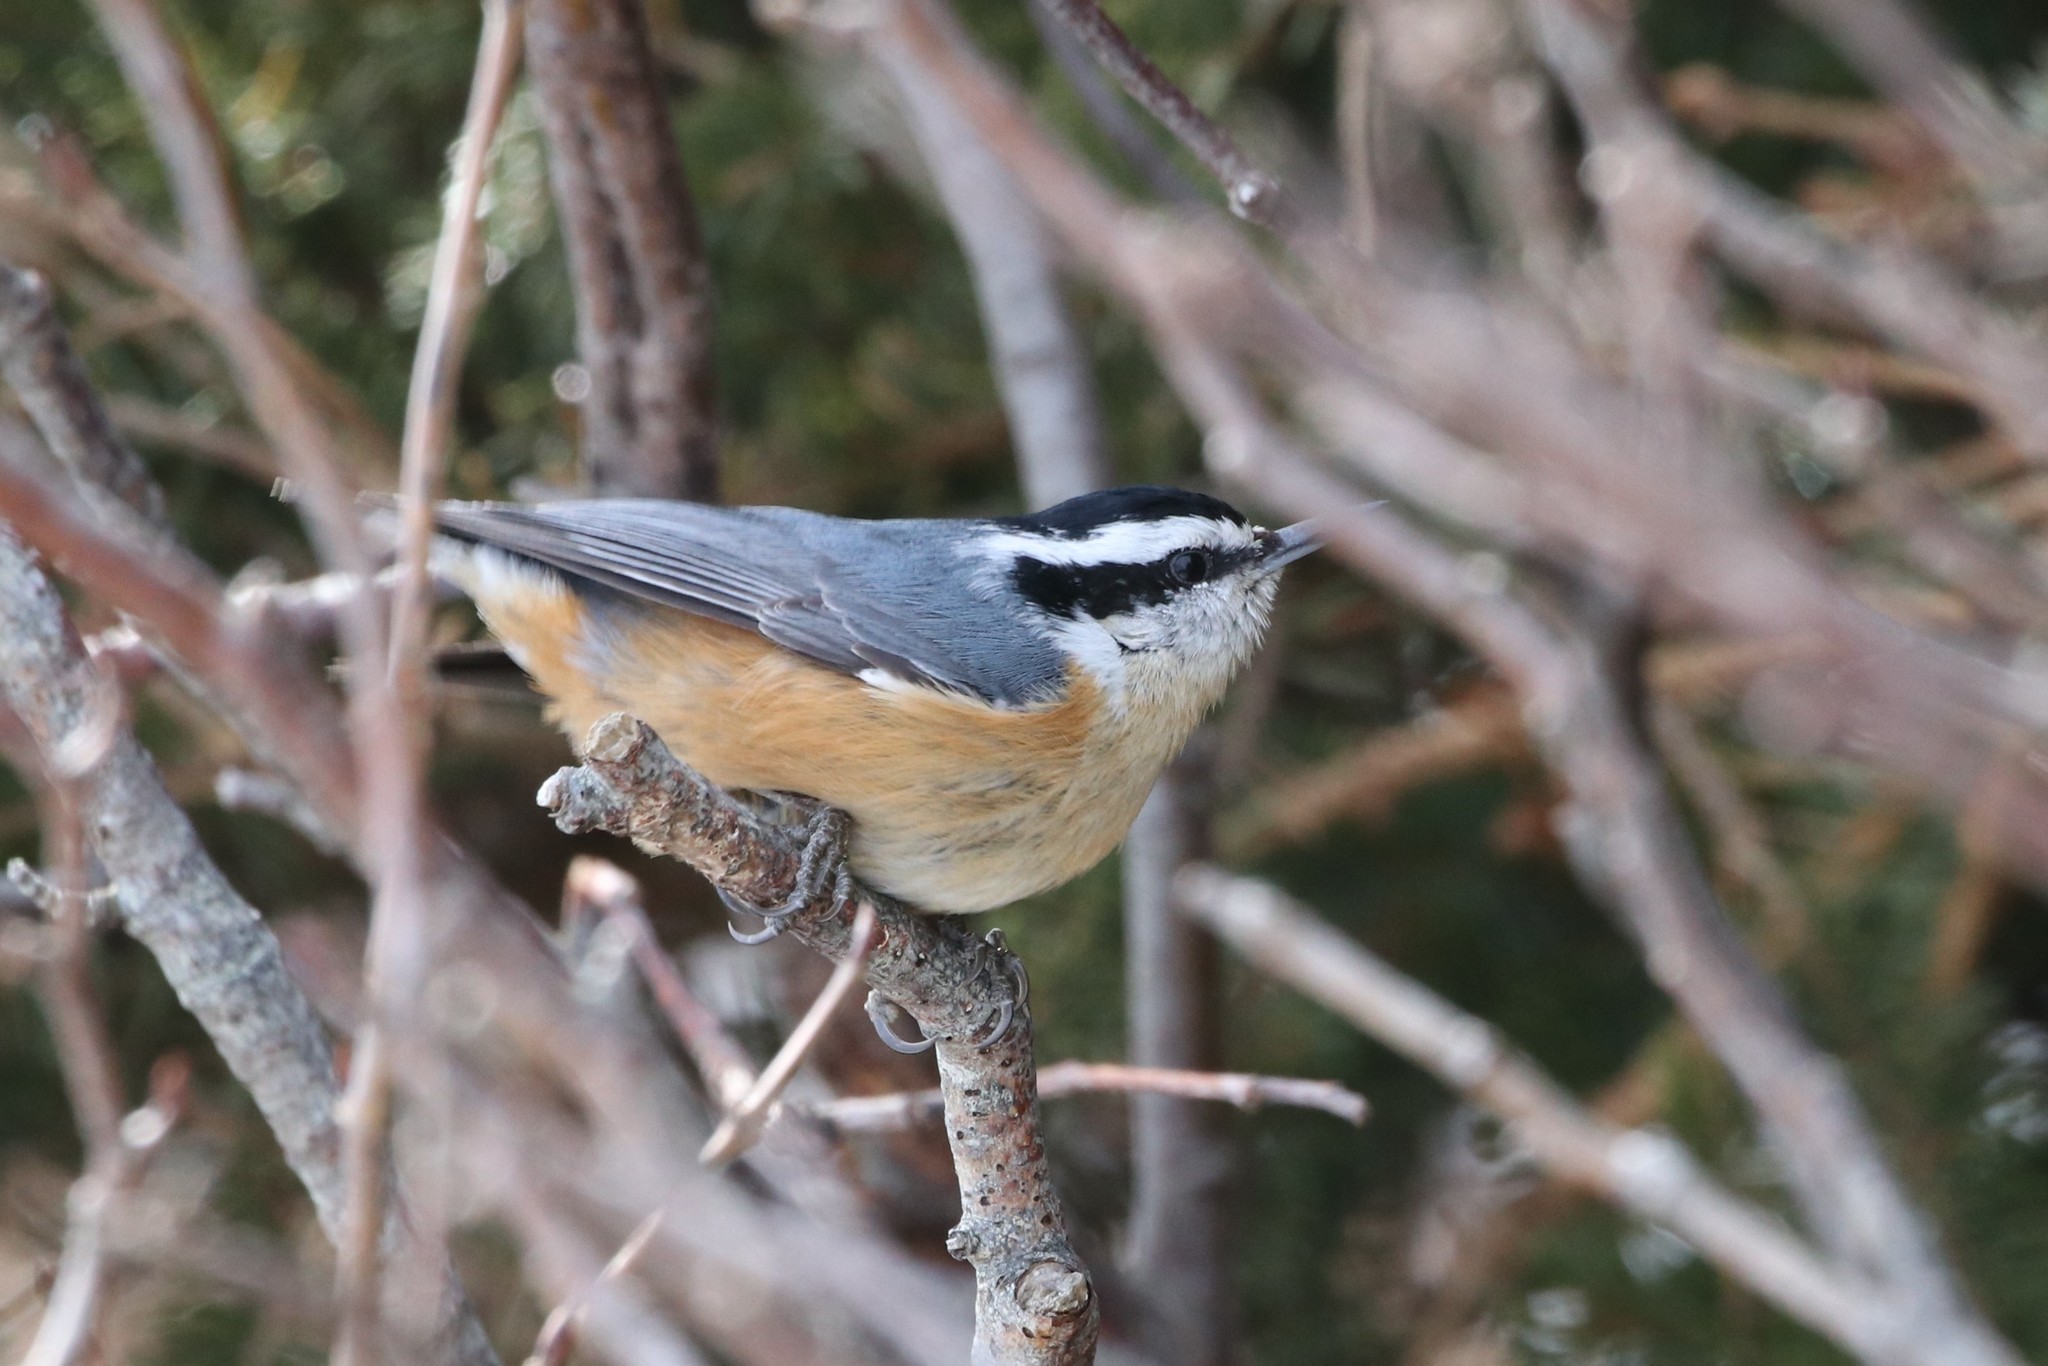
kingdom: Animalia
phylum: Chordata
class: Aves
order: Passeriformes
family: Sittidae
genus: Sitta
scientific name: Sitta canadensis
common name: Red-breasted nuthatch
